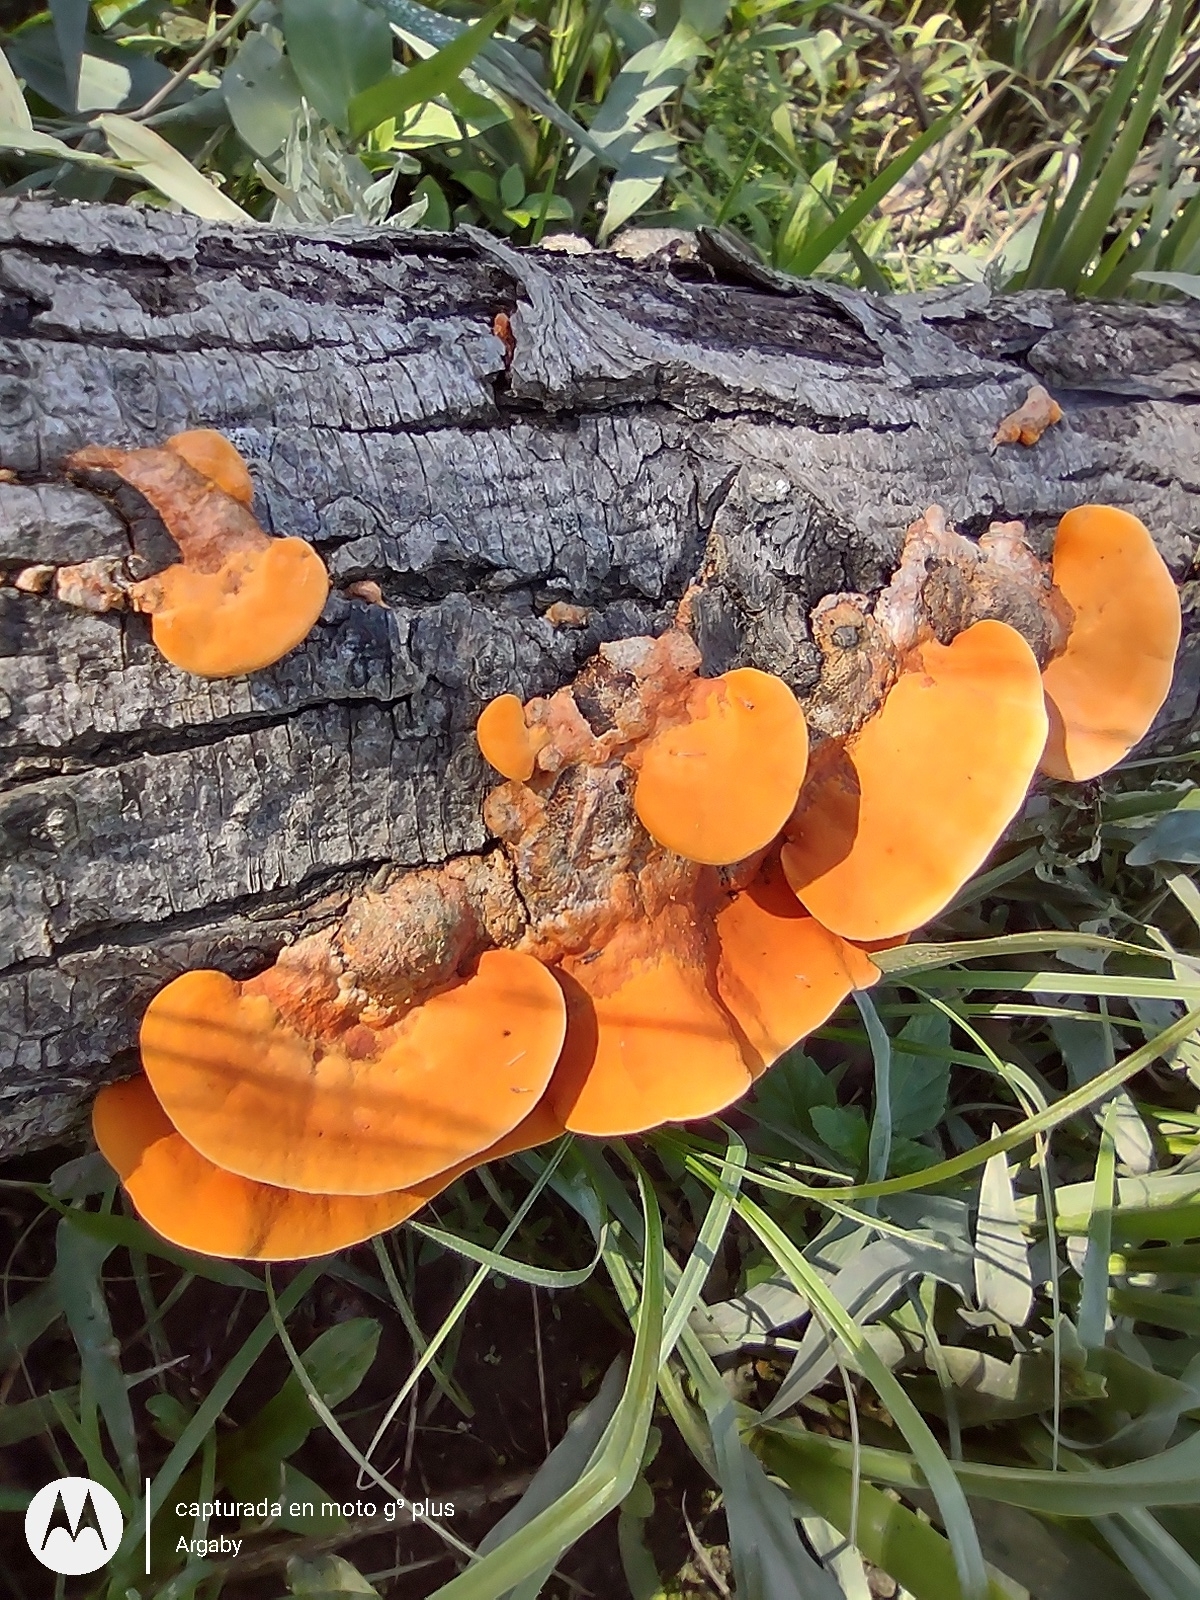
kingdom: Fungi
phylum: Basidiomycota
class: Agaricomycetes
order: Polyporales
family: Polyporaceae
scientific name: Polyporaceae
